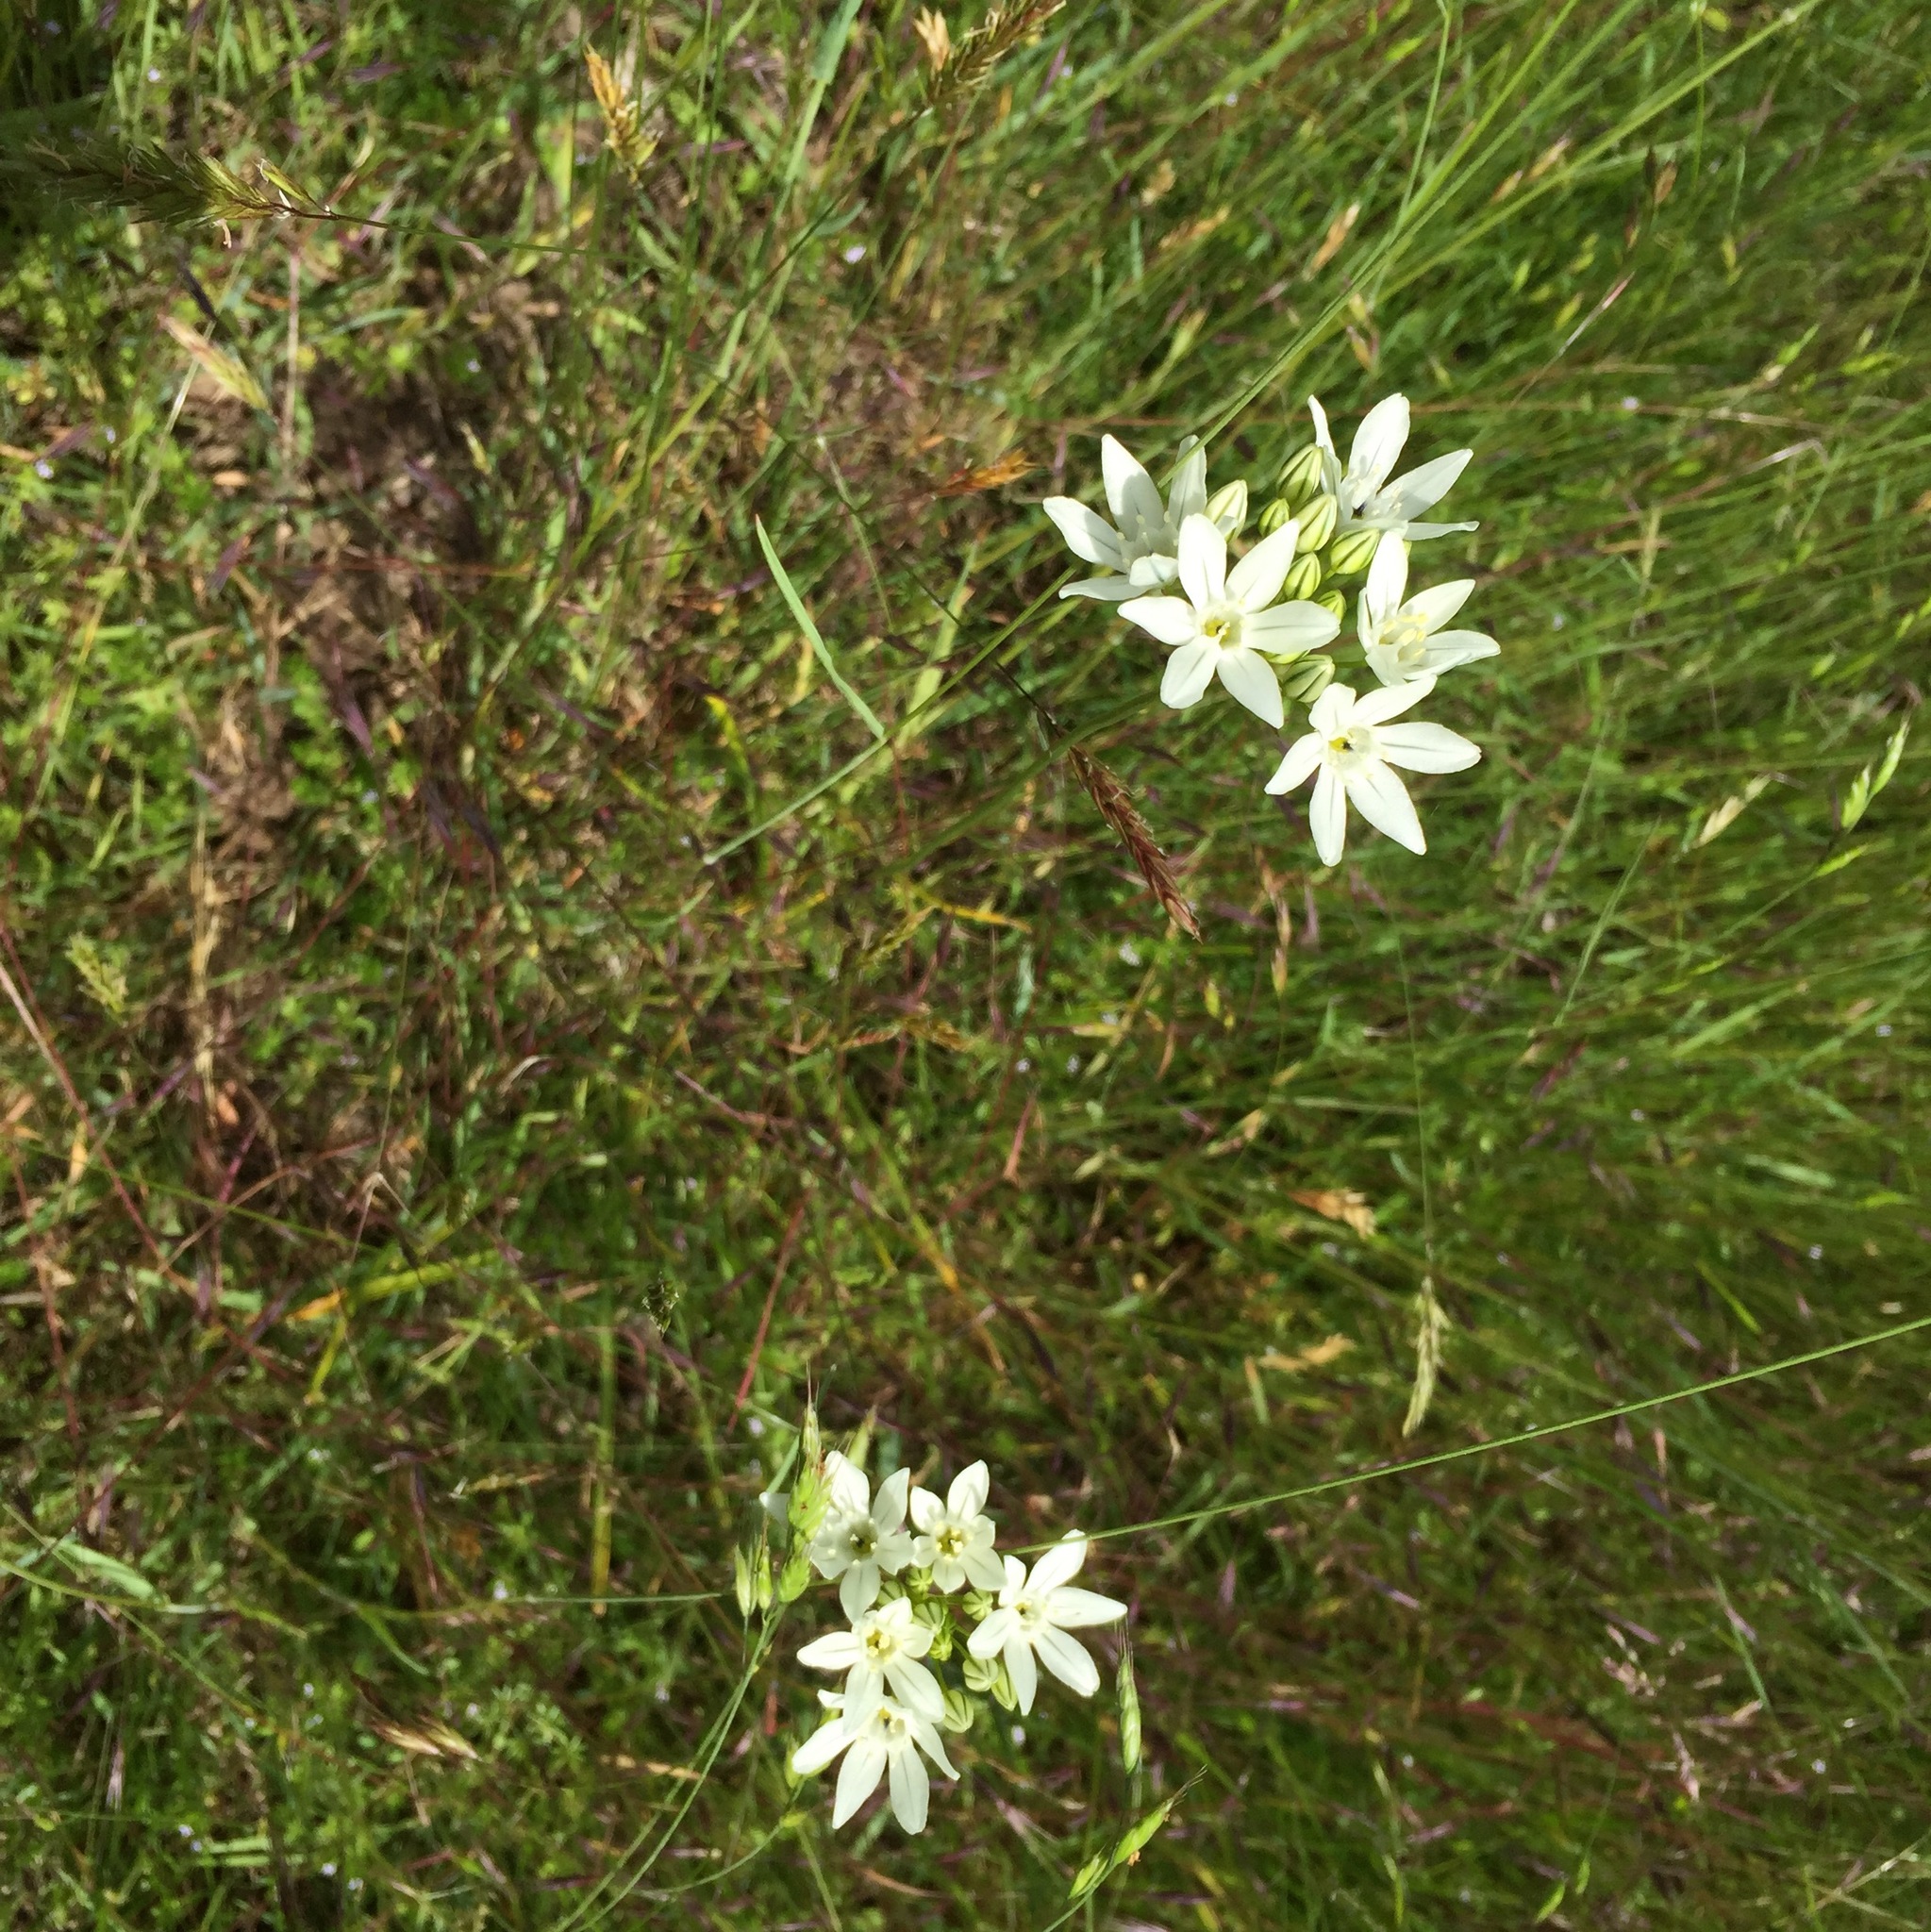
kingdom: Plantae
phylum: Tracheophyta
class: Liliopsida
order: Asparagales
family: Asparagaceae
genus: Triteleia
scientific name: Triteleia hyacinthina
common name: White brodiaea
